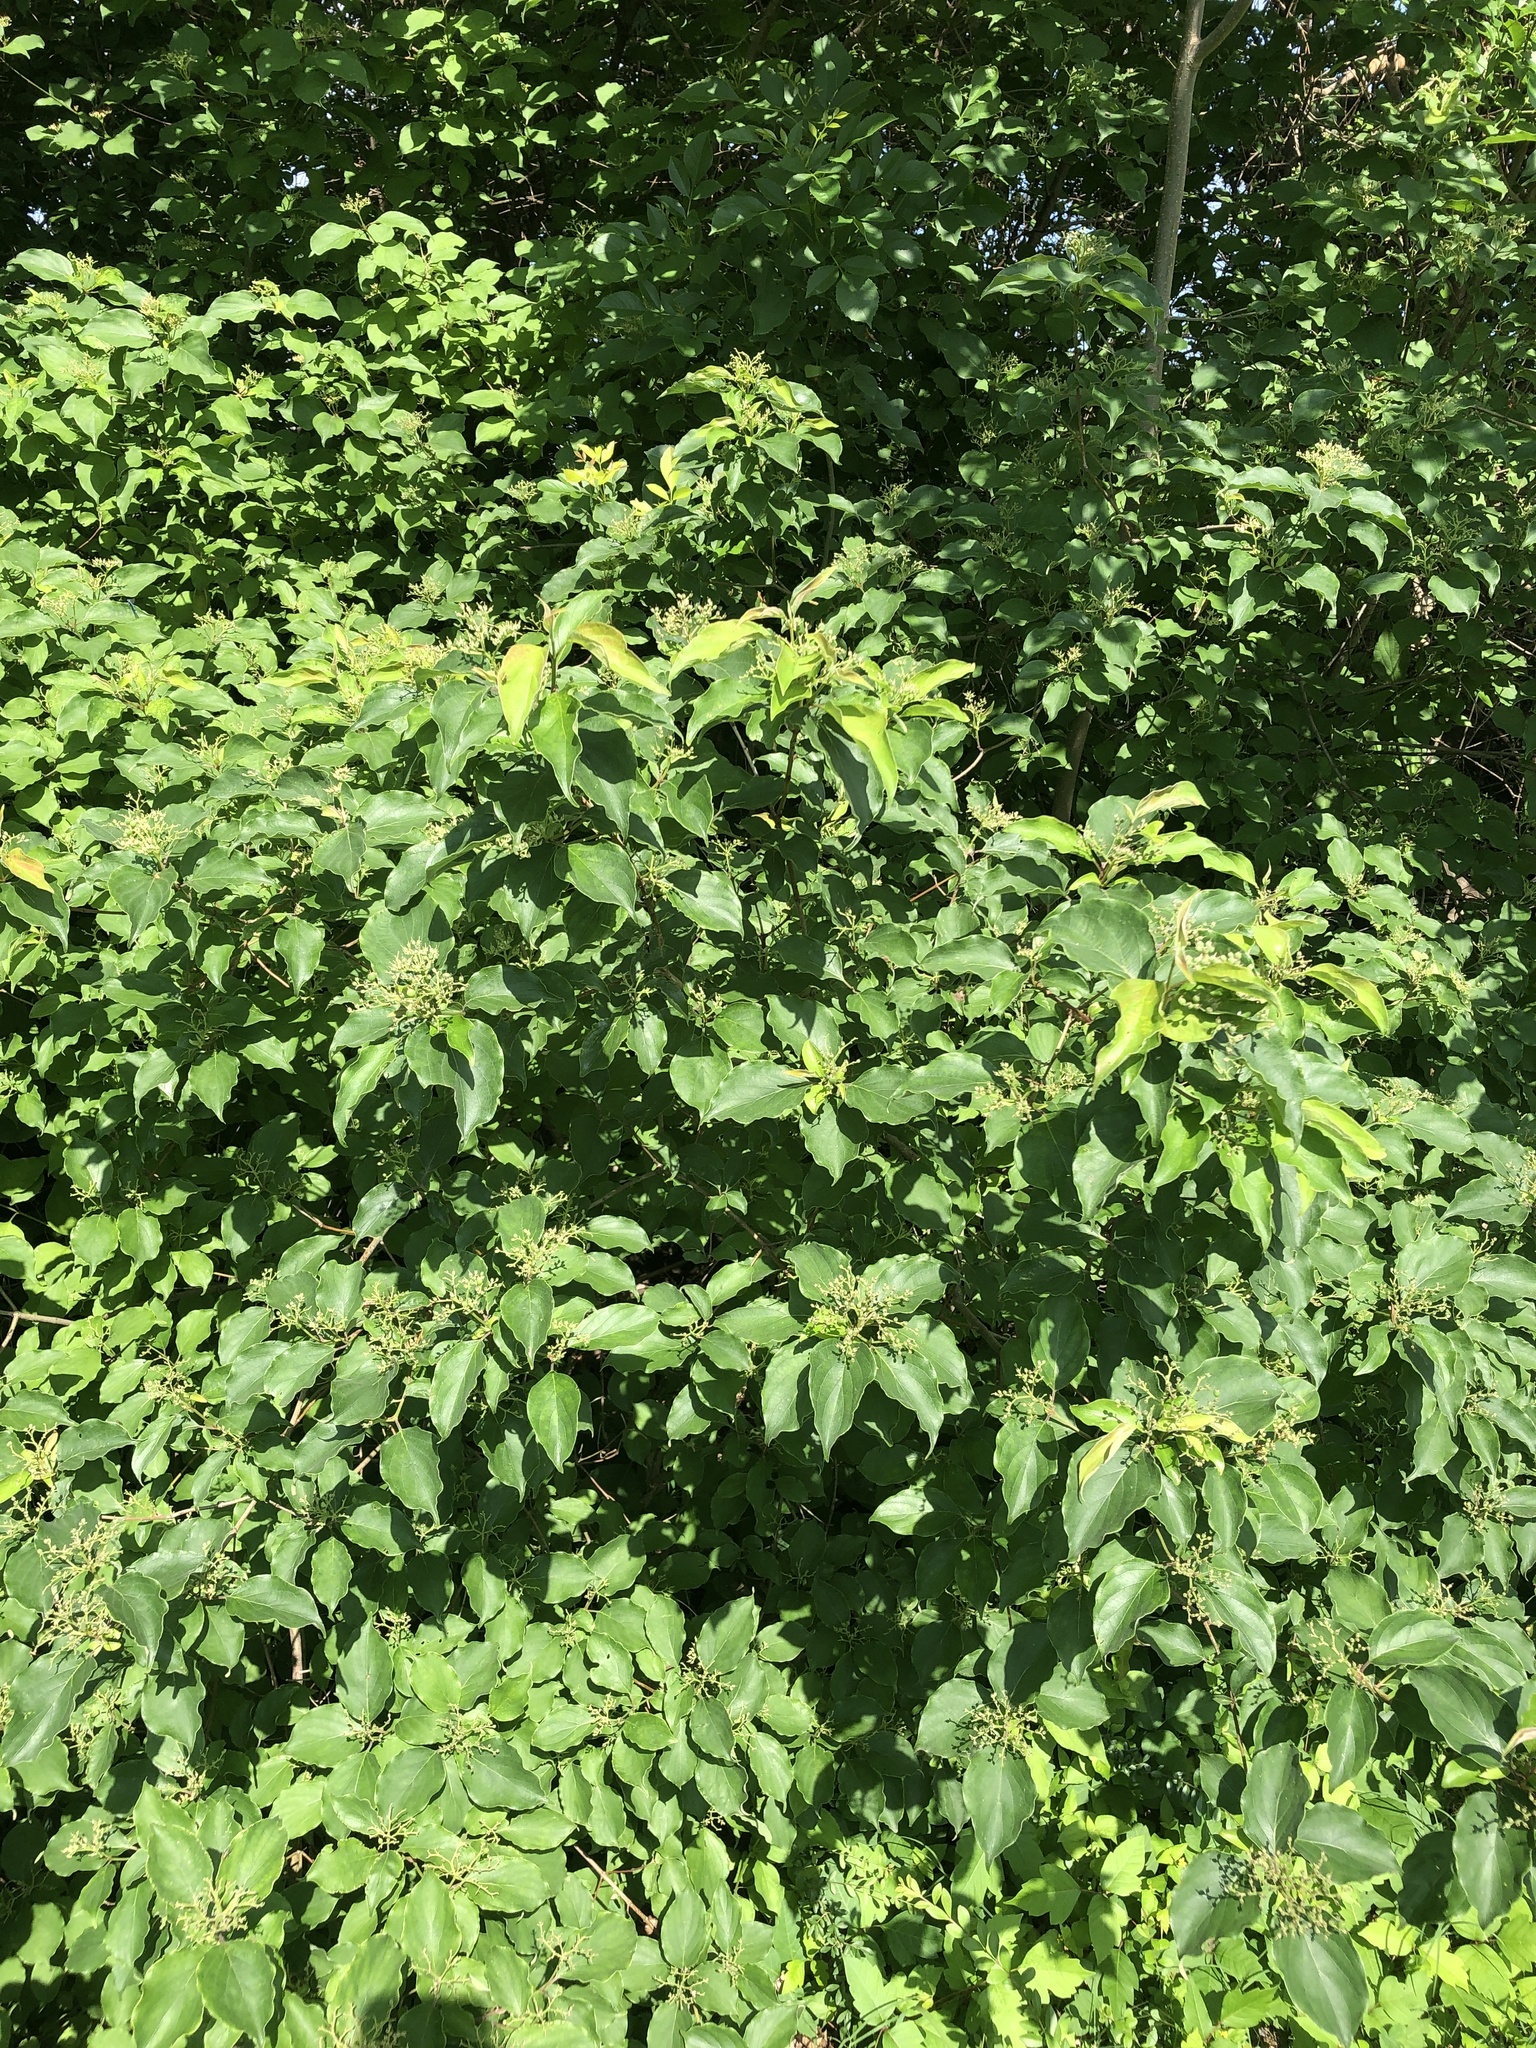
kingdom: Plantae
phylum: Tracheophyta
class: Magnoliopsida
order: Cornales
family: Cornaceae
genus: Cornus
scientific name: Cornus drummondii
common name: Rough-leaf dogwood
